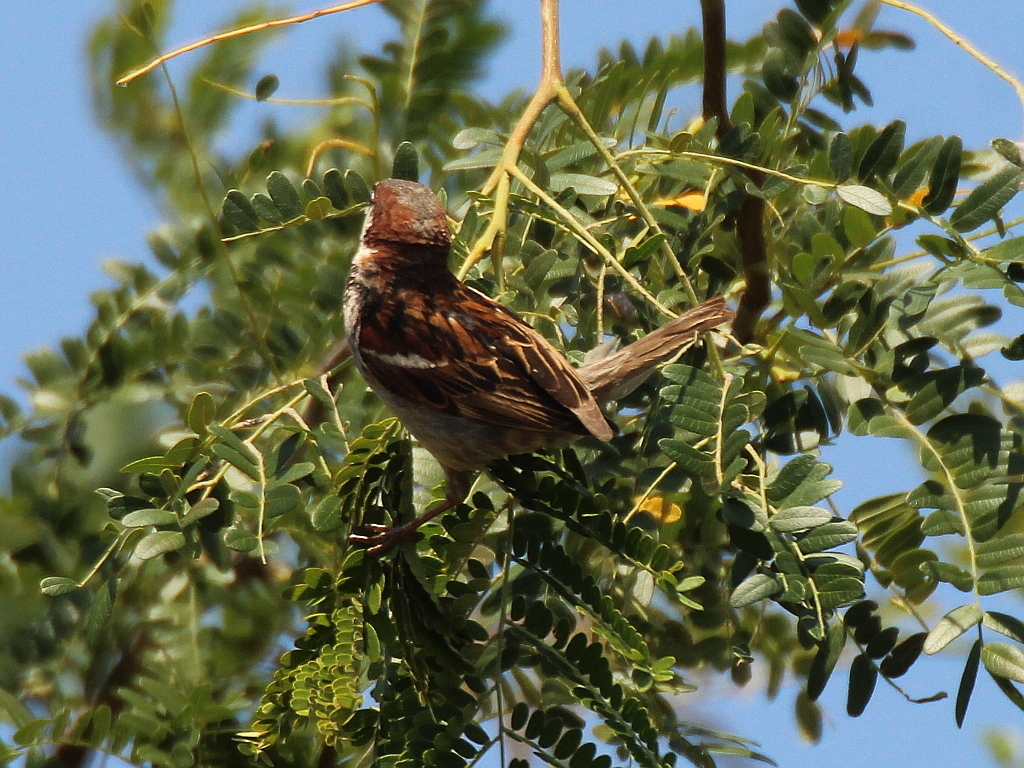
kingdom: Animalia
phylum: Chordata
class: Aves
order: Passeriformes
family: Passeridae
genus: Passer
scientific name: Passer domesticus
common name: House sparrow
